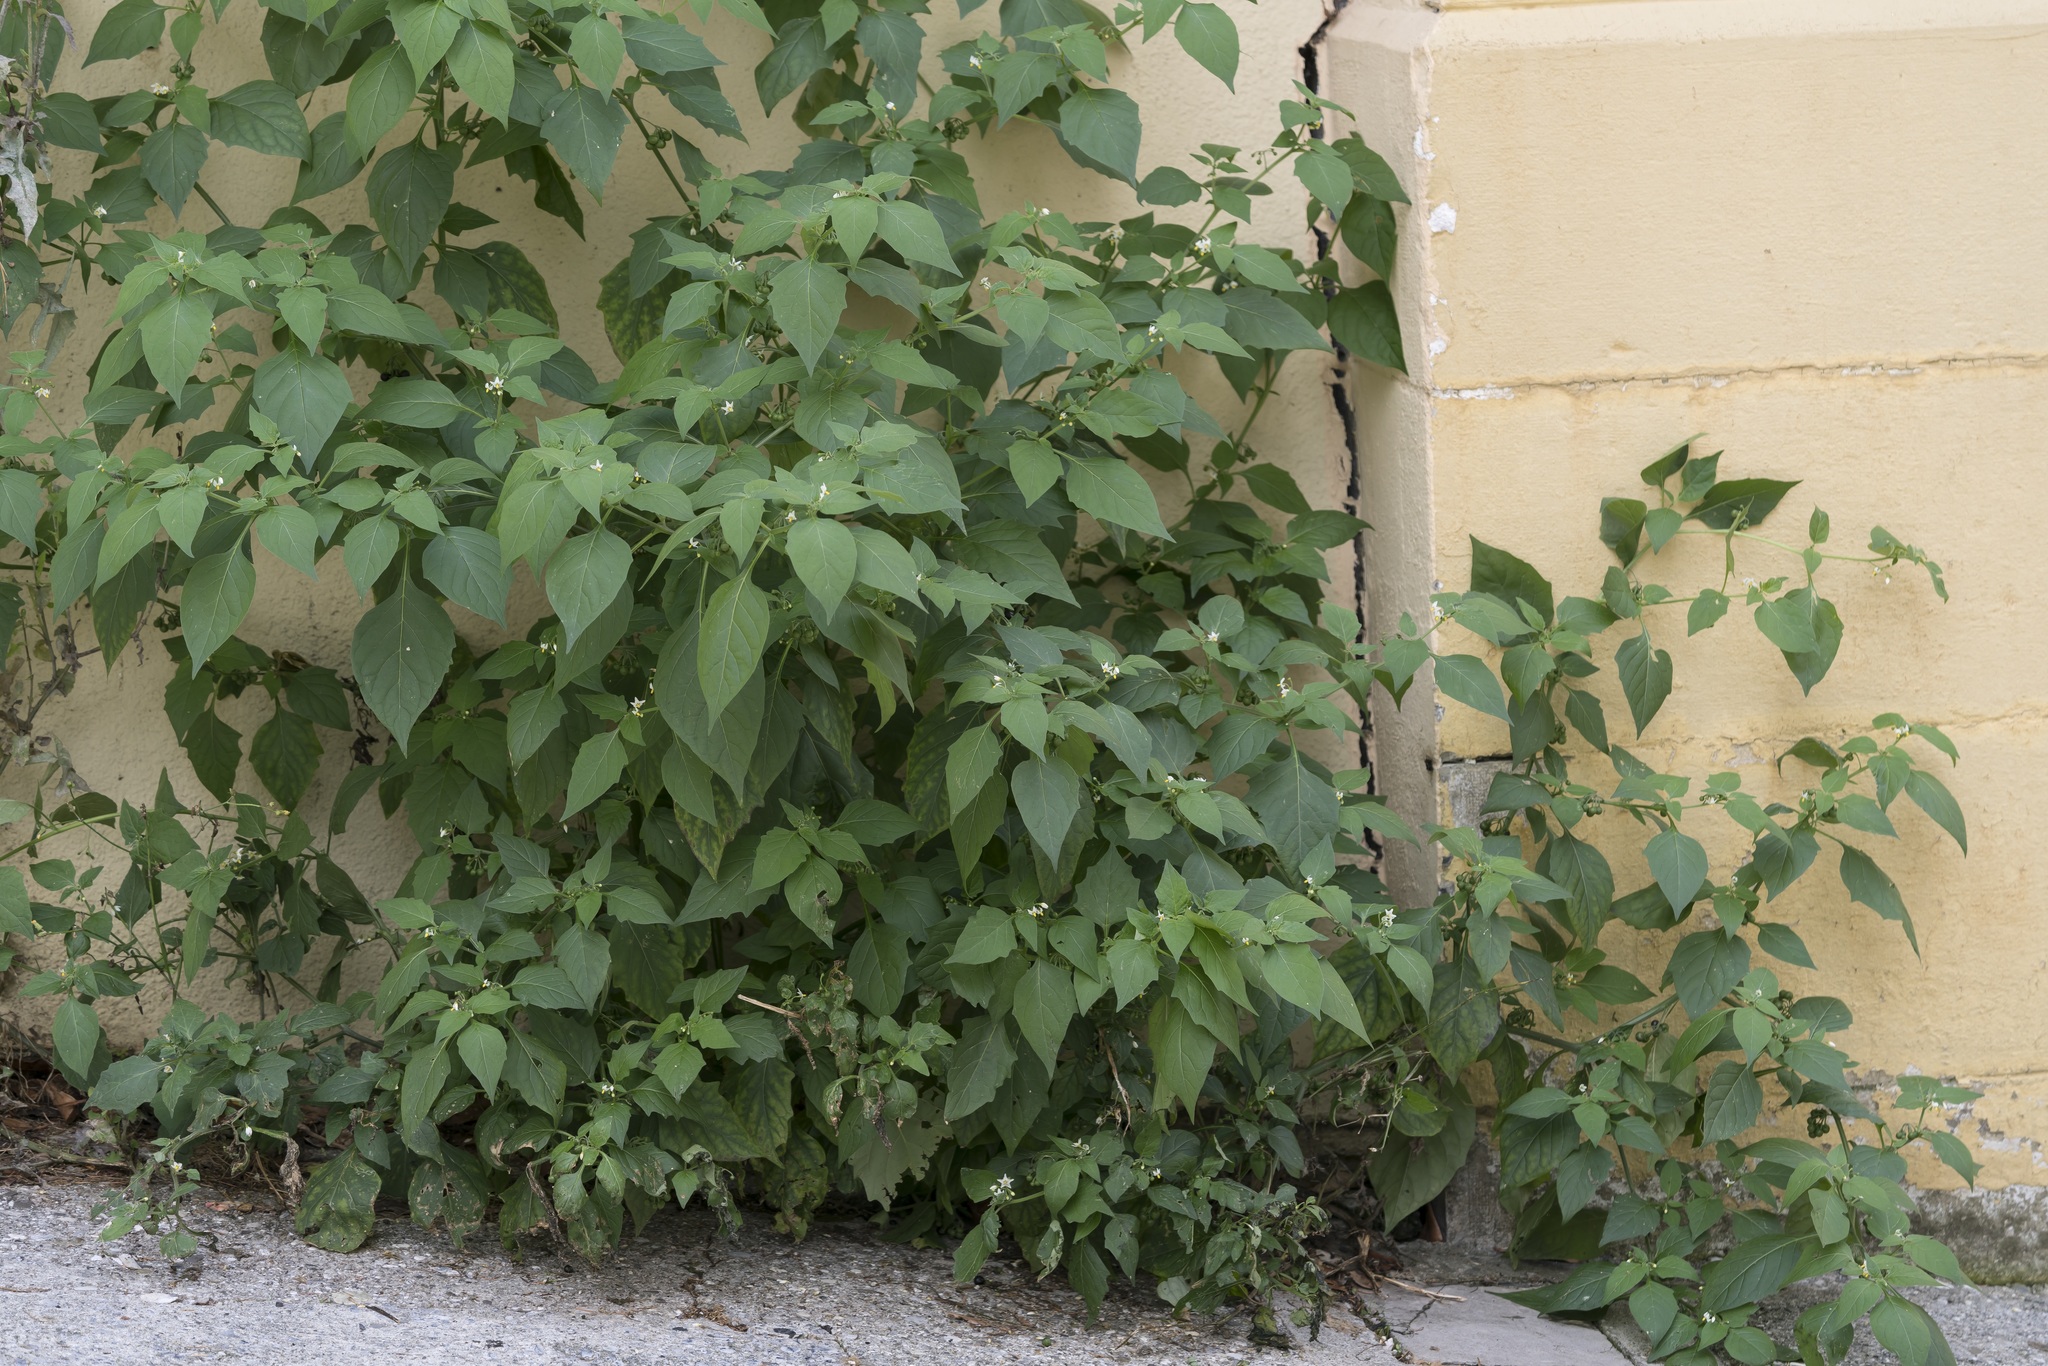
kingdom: Plantae
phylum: Tracheophyta
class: Magnoliopsida
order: Solanales
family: Solanaceae
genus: Solanum
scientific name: Solanum nigrum
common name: Black nightshade
